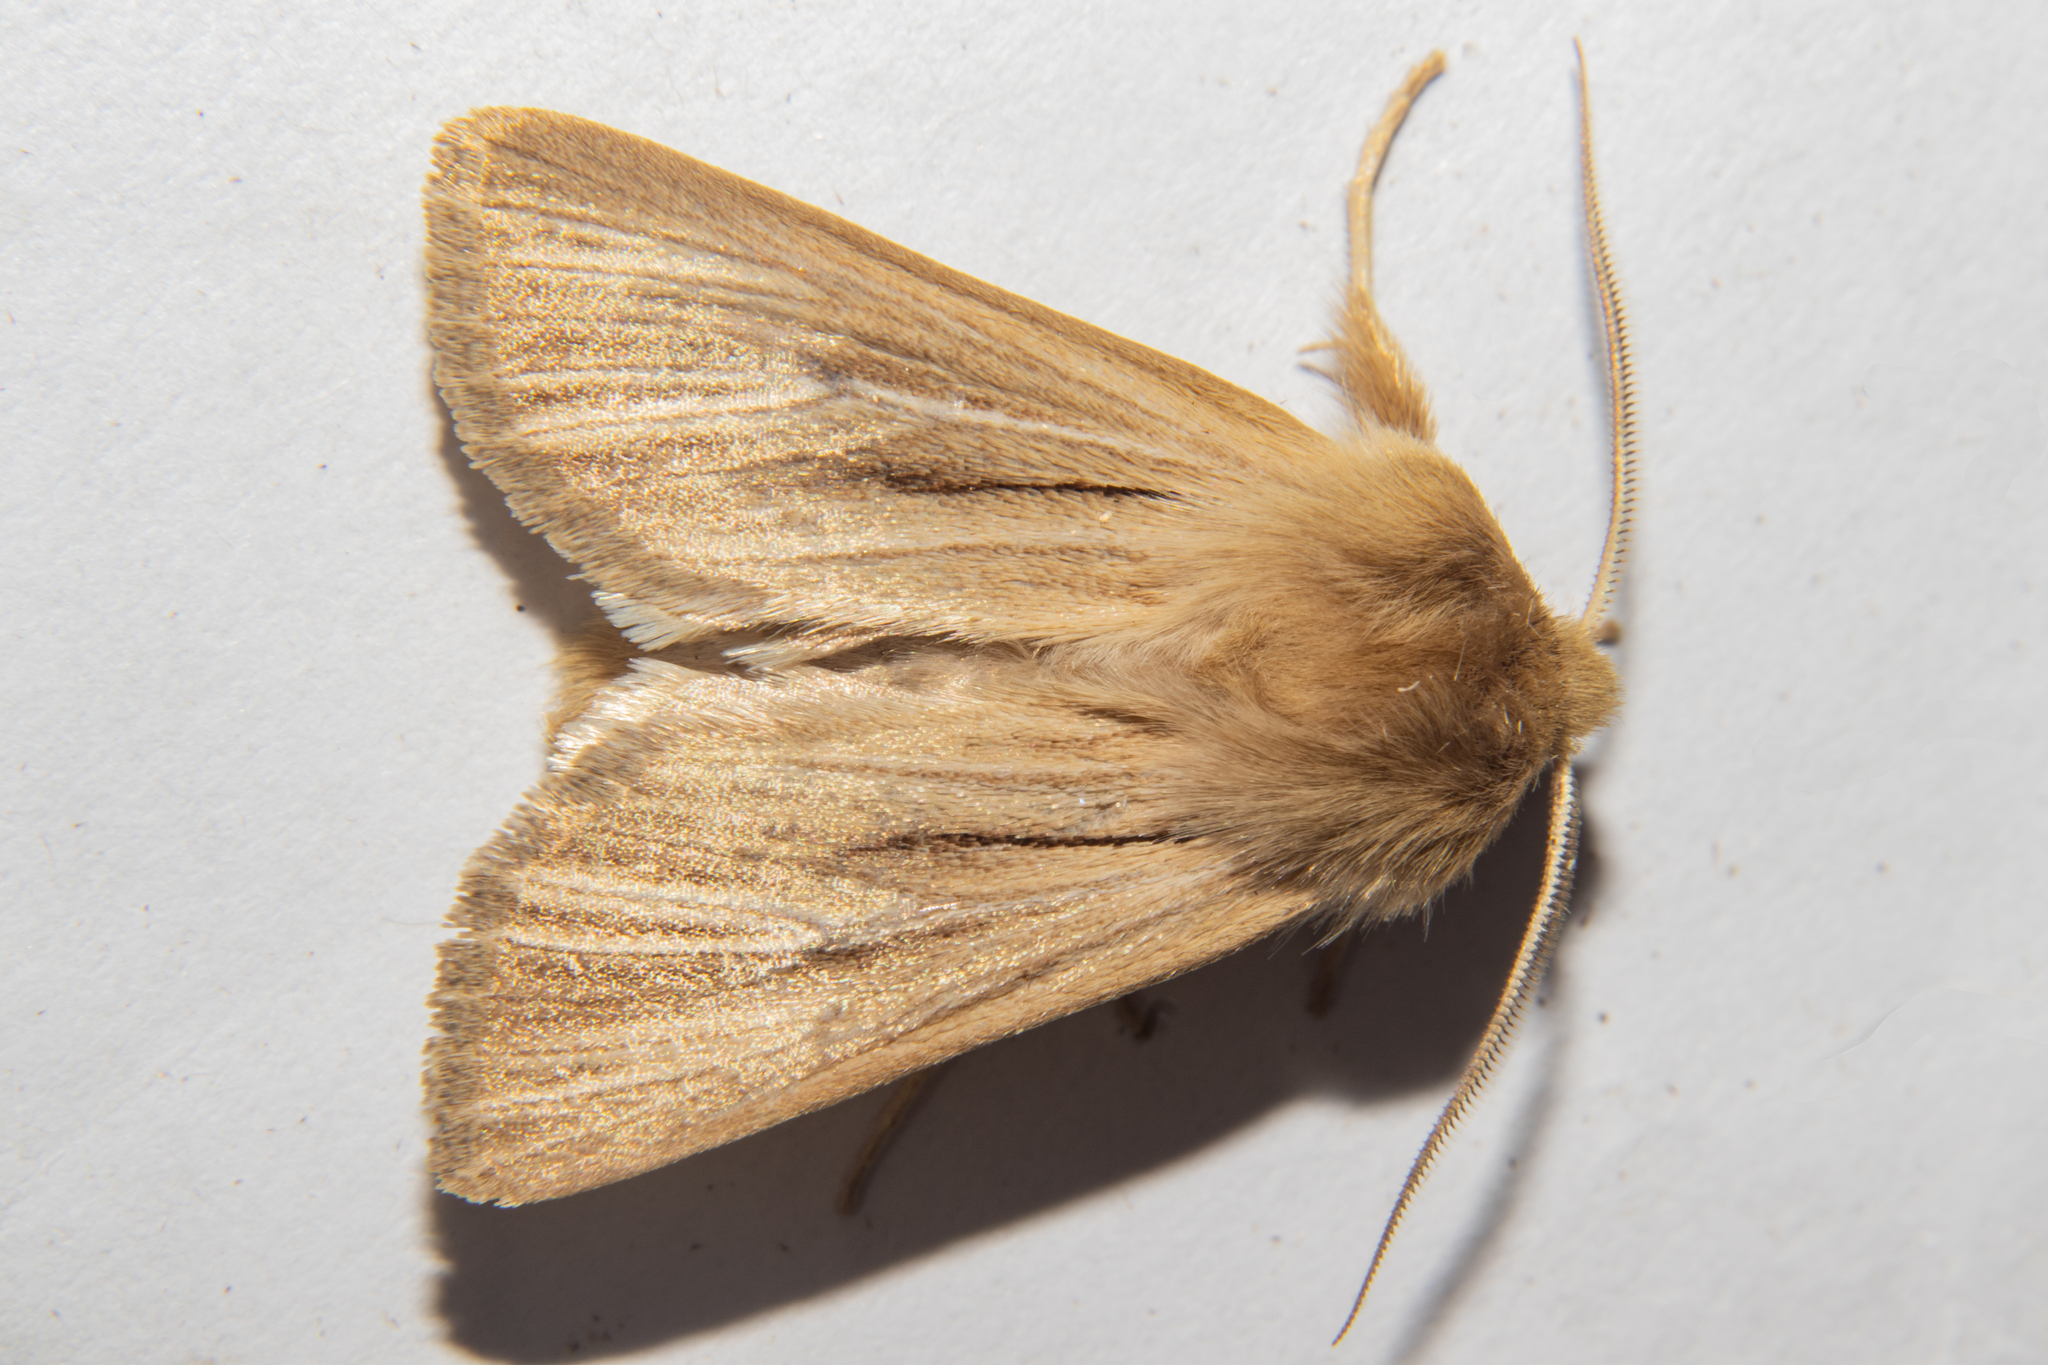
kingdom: Animalia
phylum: Arthropoda
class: Insecta
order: Lepidoptera
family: Noctuidae
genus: Ichneutica
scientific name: Ichneutica
